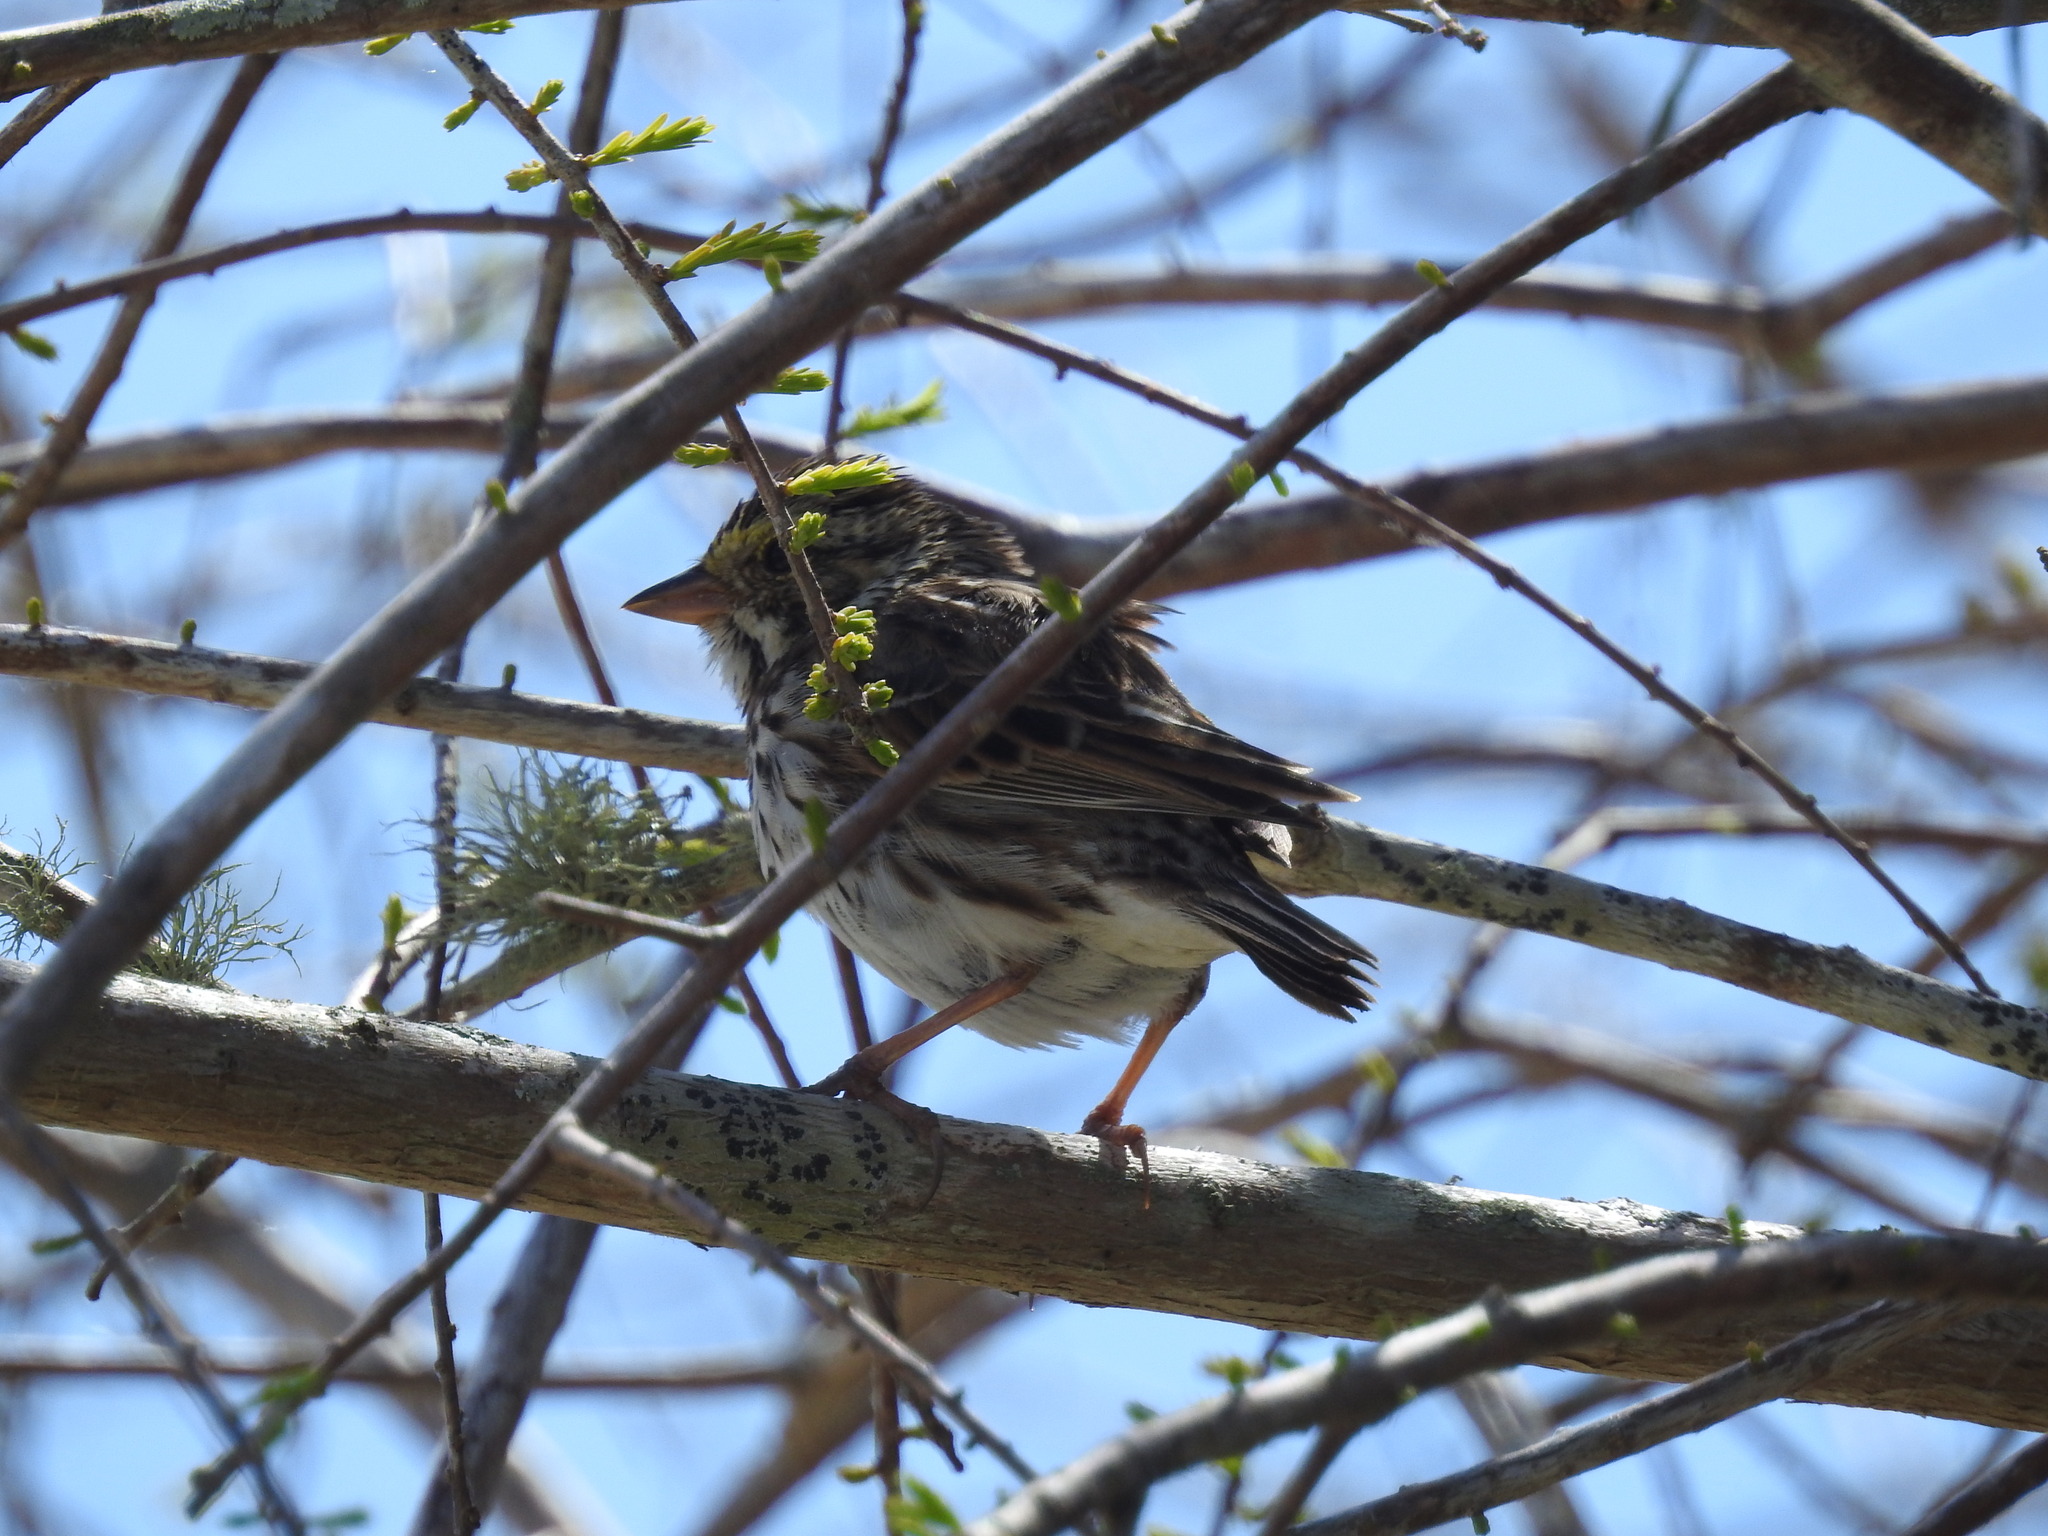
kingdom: Animalia
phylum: Chordata
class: Aves
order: Passeriformes
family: Passerellidae
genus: Passerculus
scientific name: Passerculus sandwichensis
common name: Savannah sparrow
